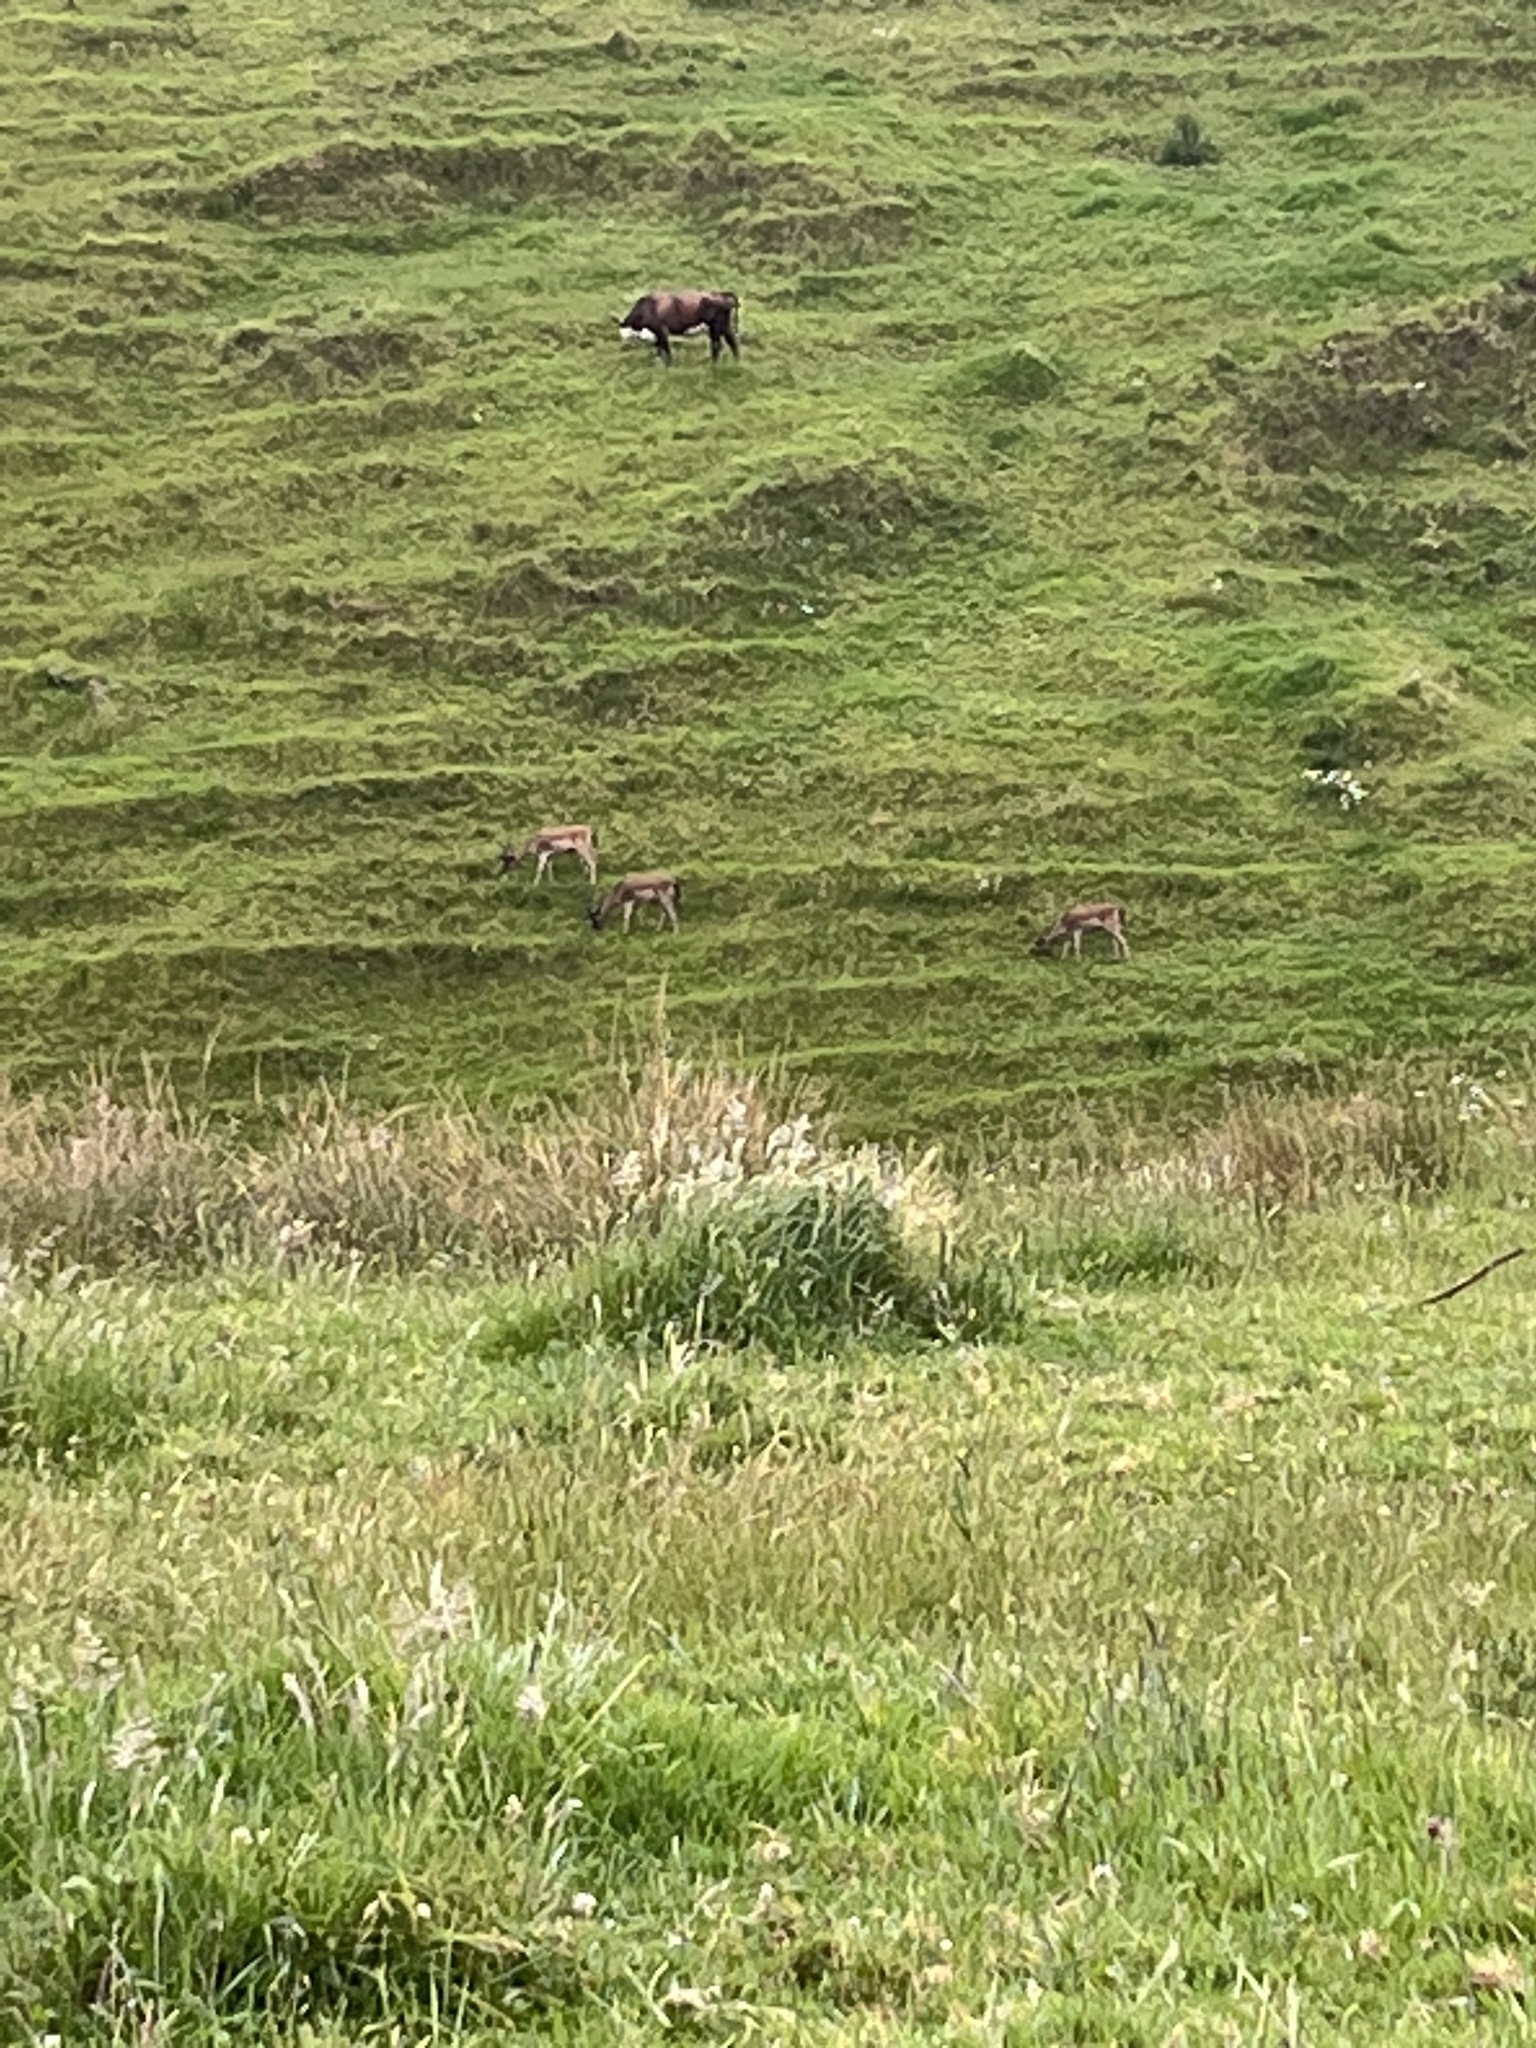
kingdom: Animalia
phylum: Chordata
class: Mammalia
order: Artiodactyla
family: Cervidae
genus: Dama
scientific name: Dama dama
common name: Fallow deer
